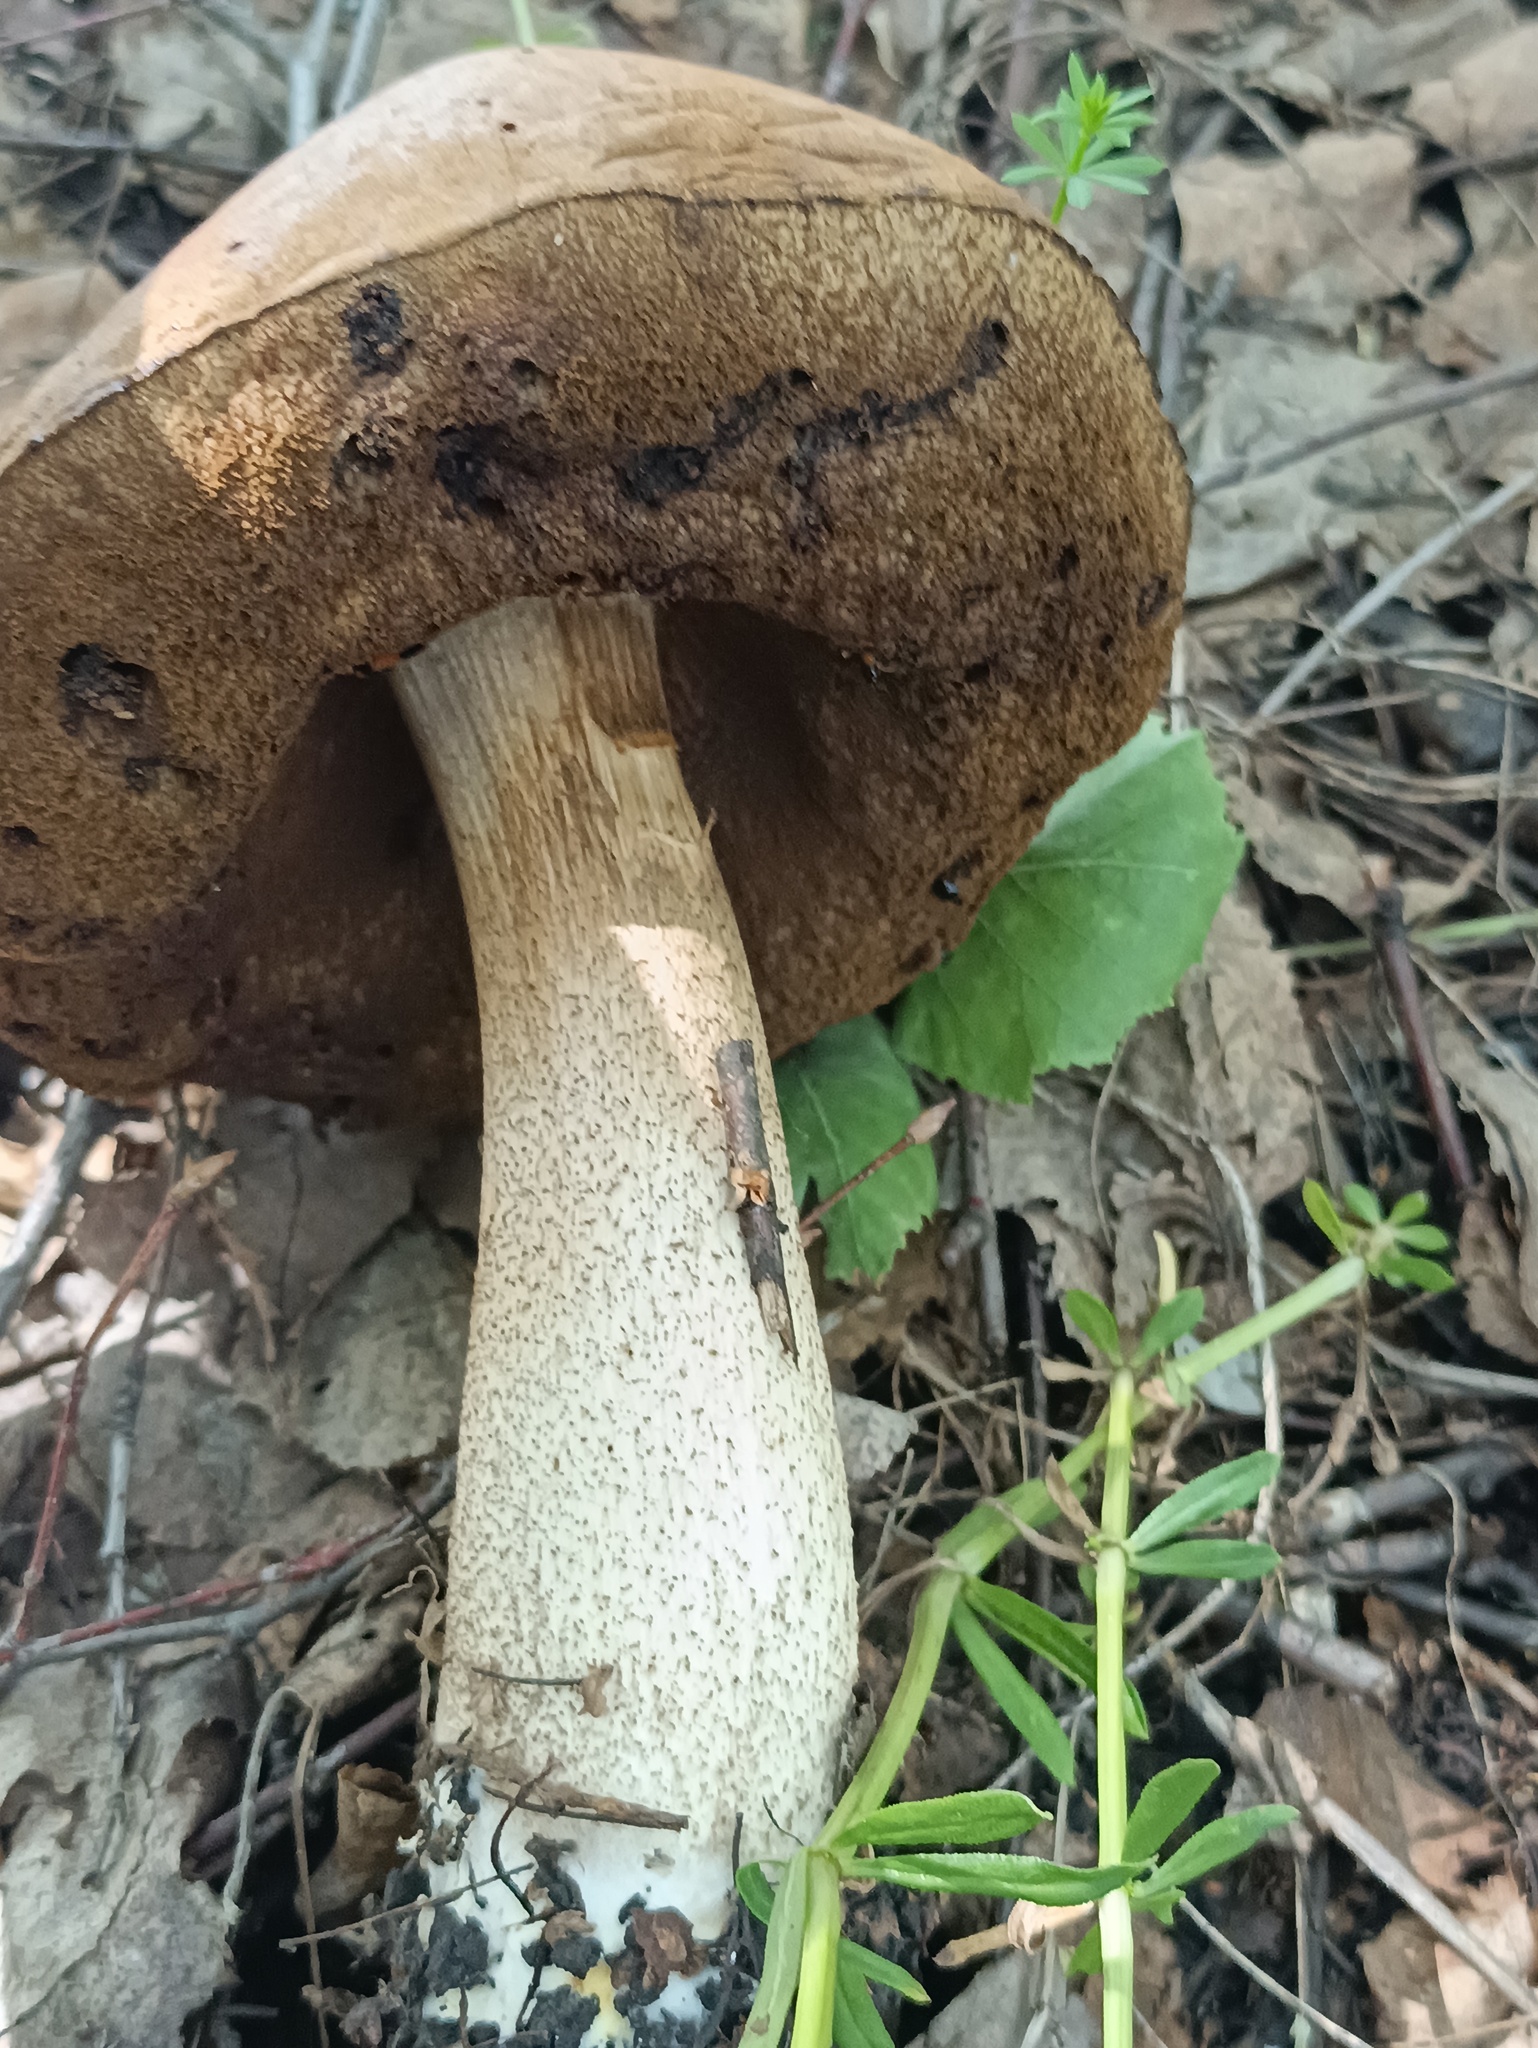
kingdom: Fungi
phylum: Basidiomycota
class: Agaricomycetes
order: Boletales
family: Boletaceae
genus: Leccinum
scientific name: Leccinum scabrum
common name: Blushing bolete
